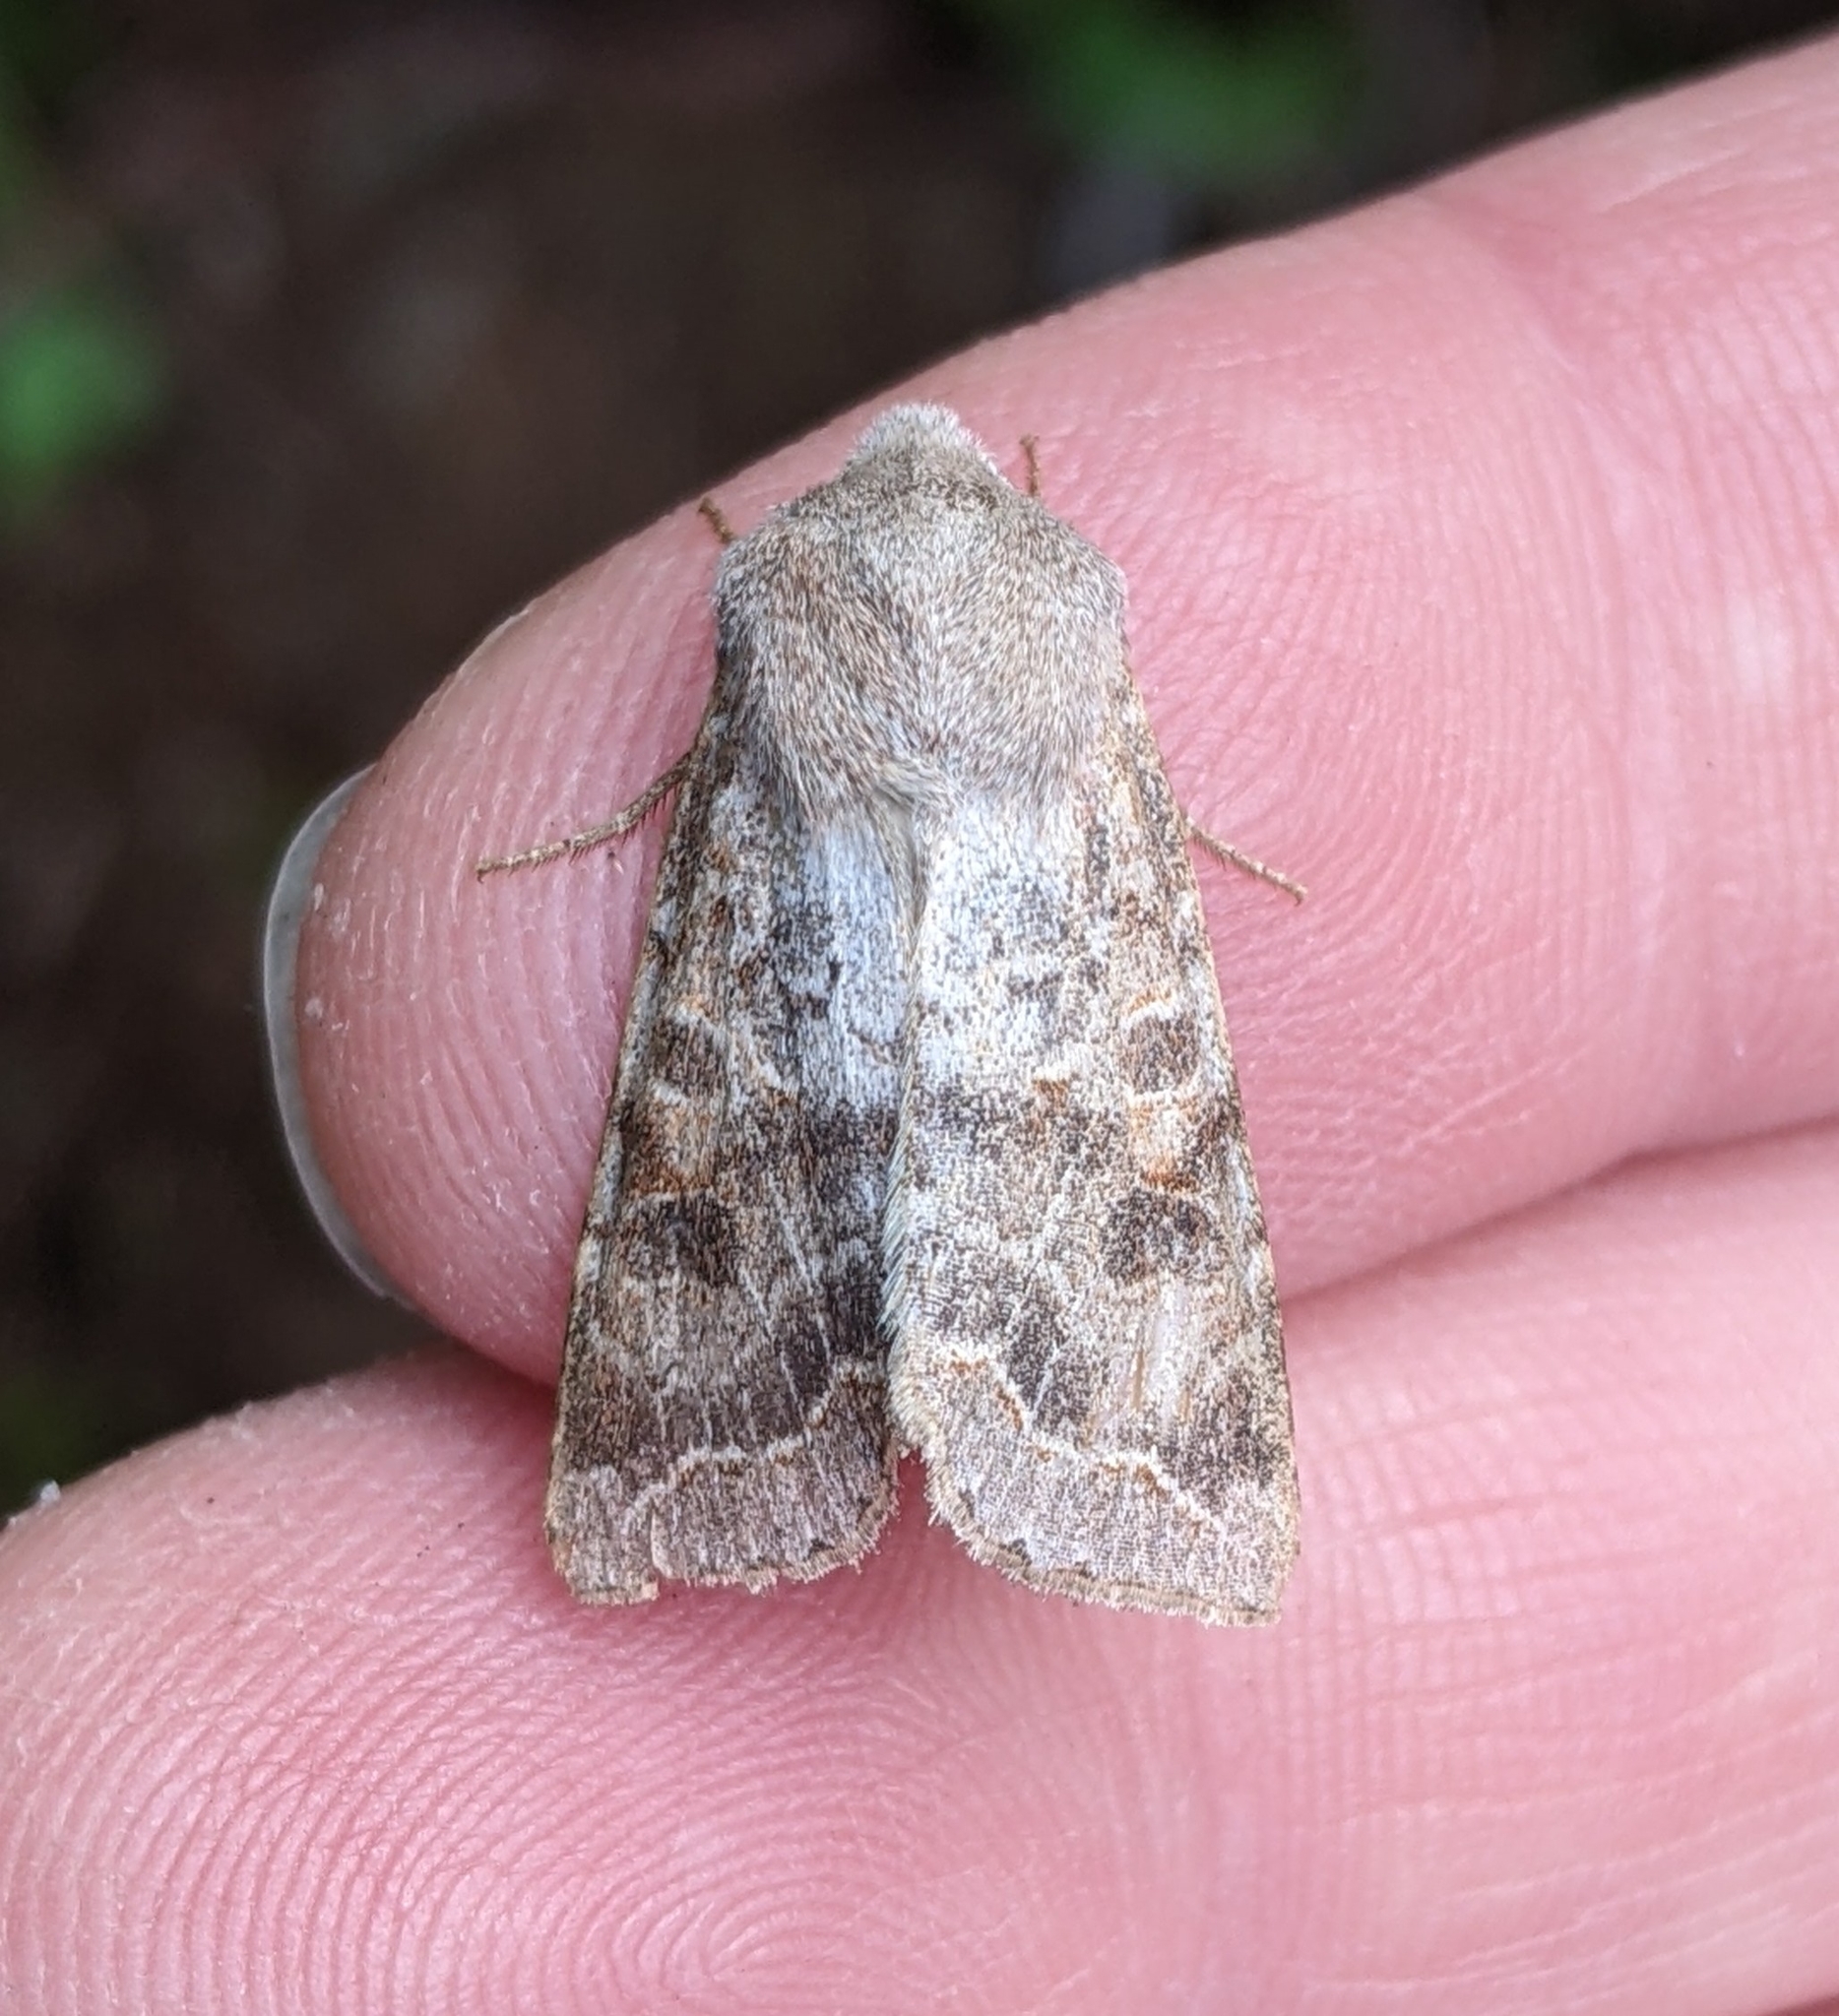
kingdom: Animalia
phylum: Arthropoda
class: Insecta
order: Lepidoptera
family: Noctuidae
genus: Orthosia
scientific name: Orthosia revicta
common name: Rusty whitesided caterpillar
